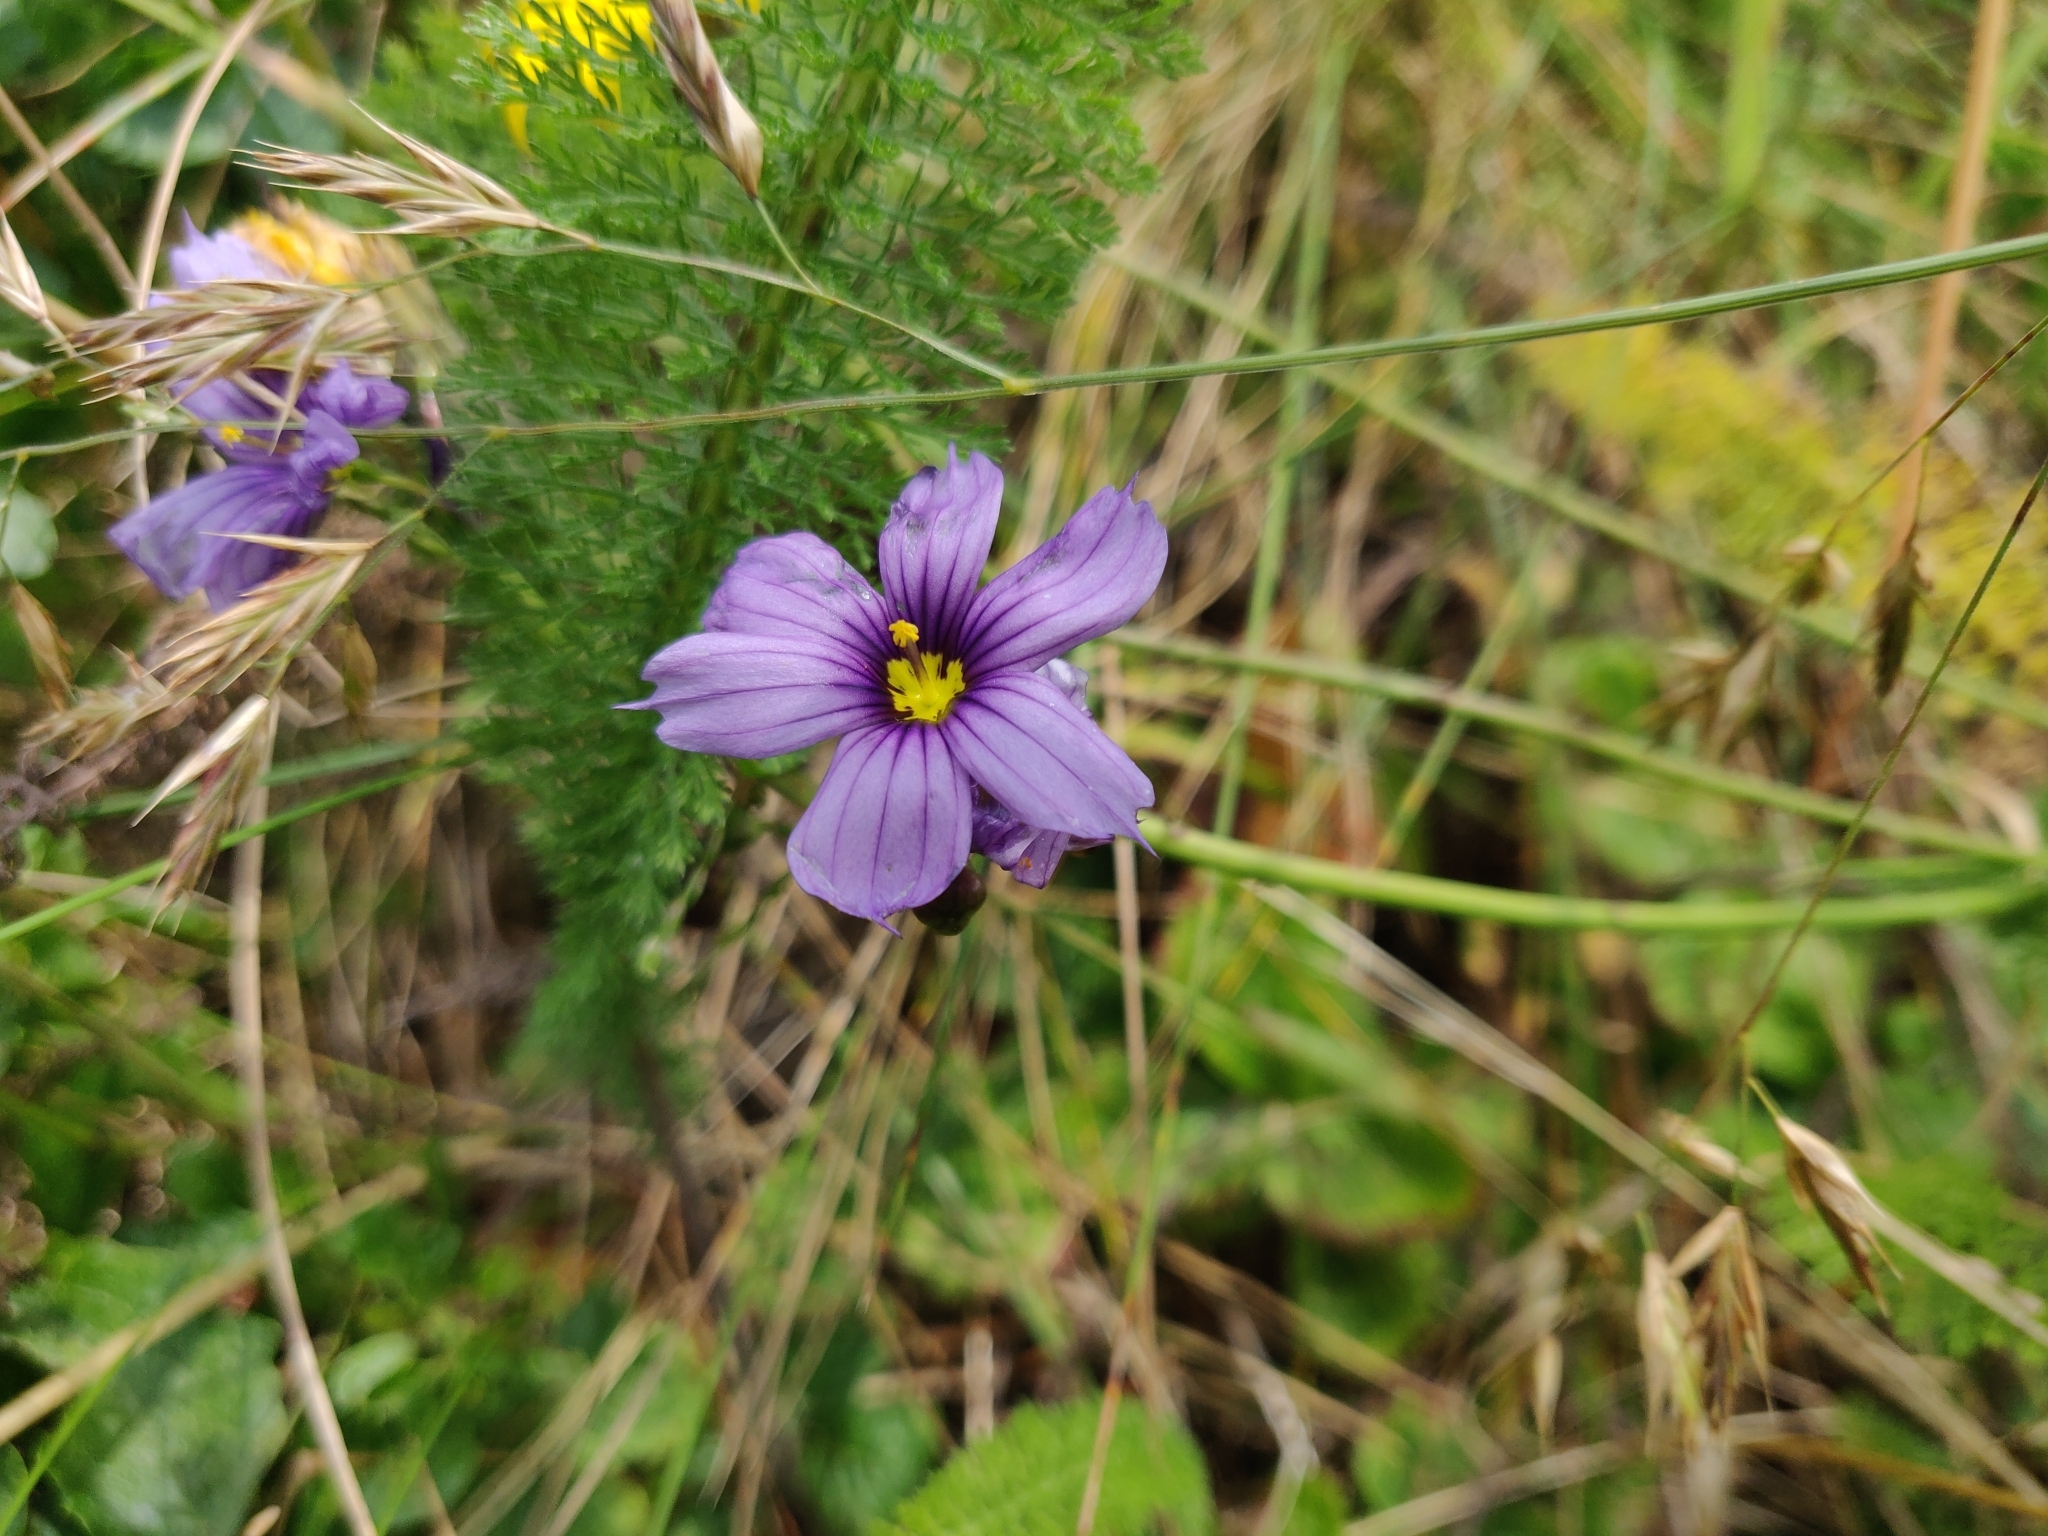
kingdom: Plantae
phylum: Tracheophyta
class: Liliopsida
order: Asparagales
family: Iridaceae
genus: Sisyrinchium
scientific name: Sisyrinchium bellum
